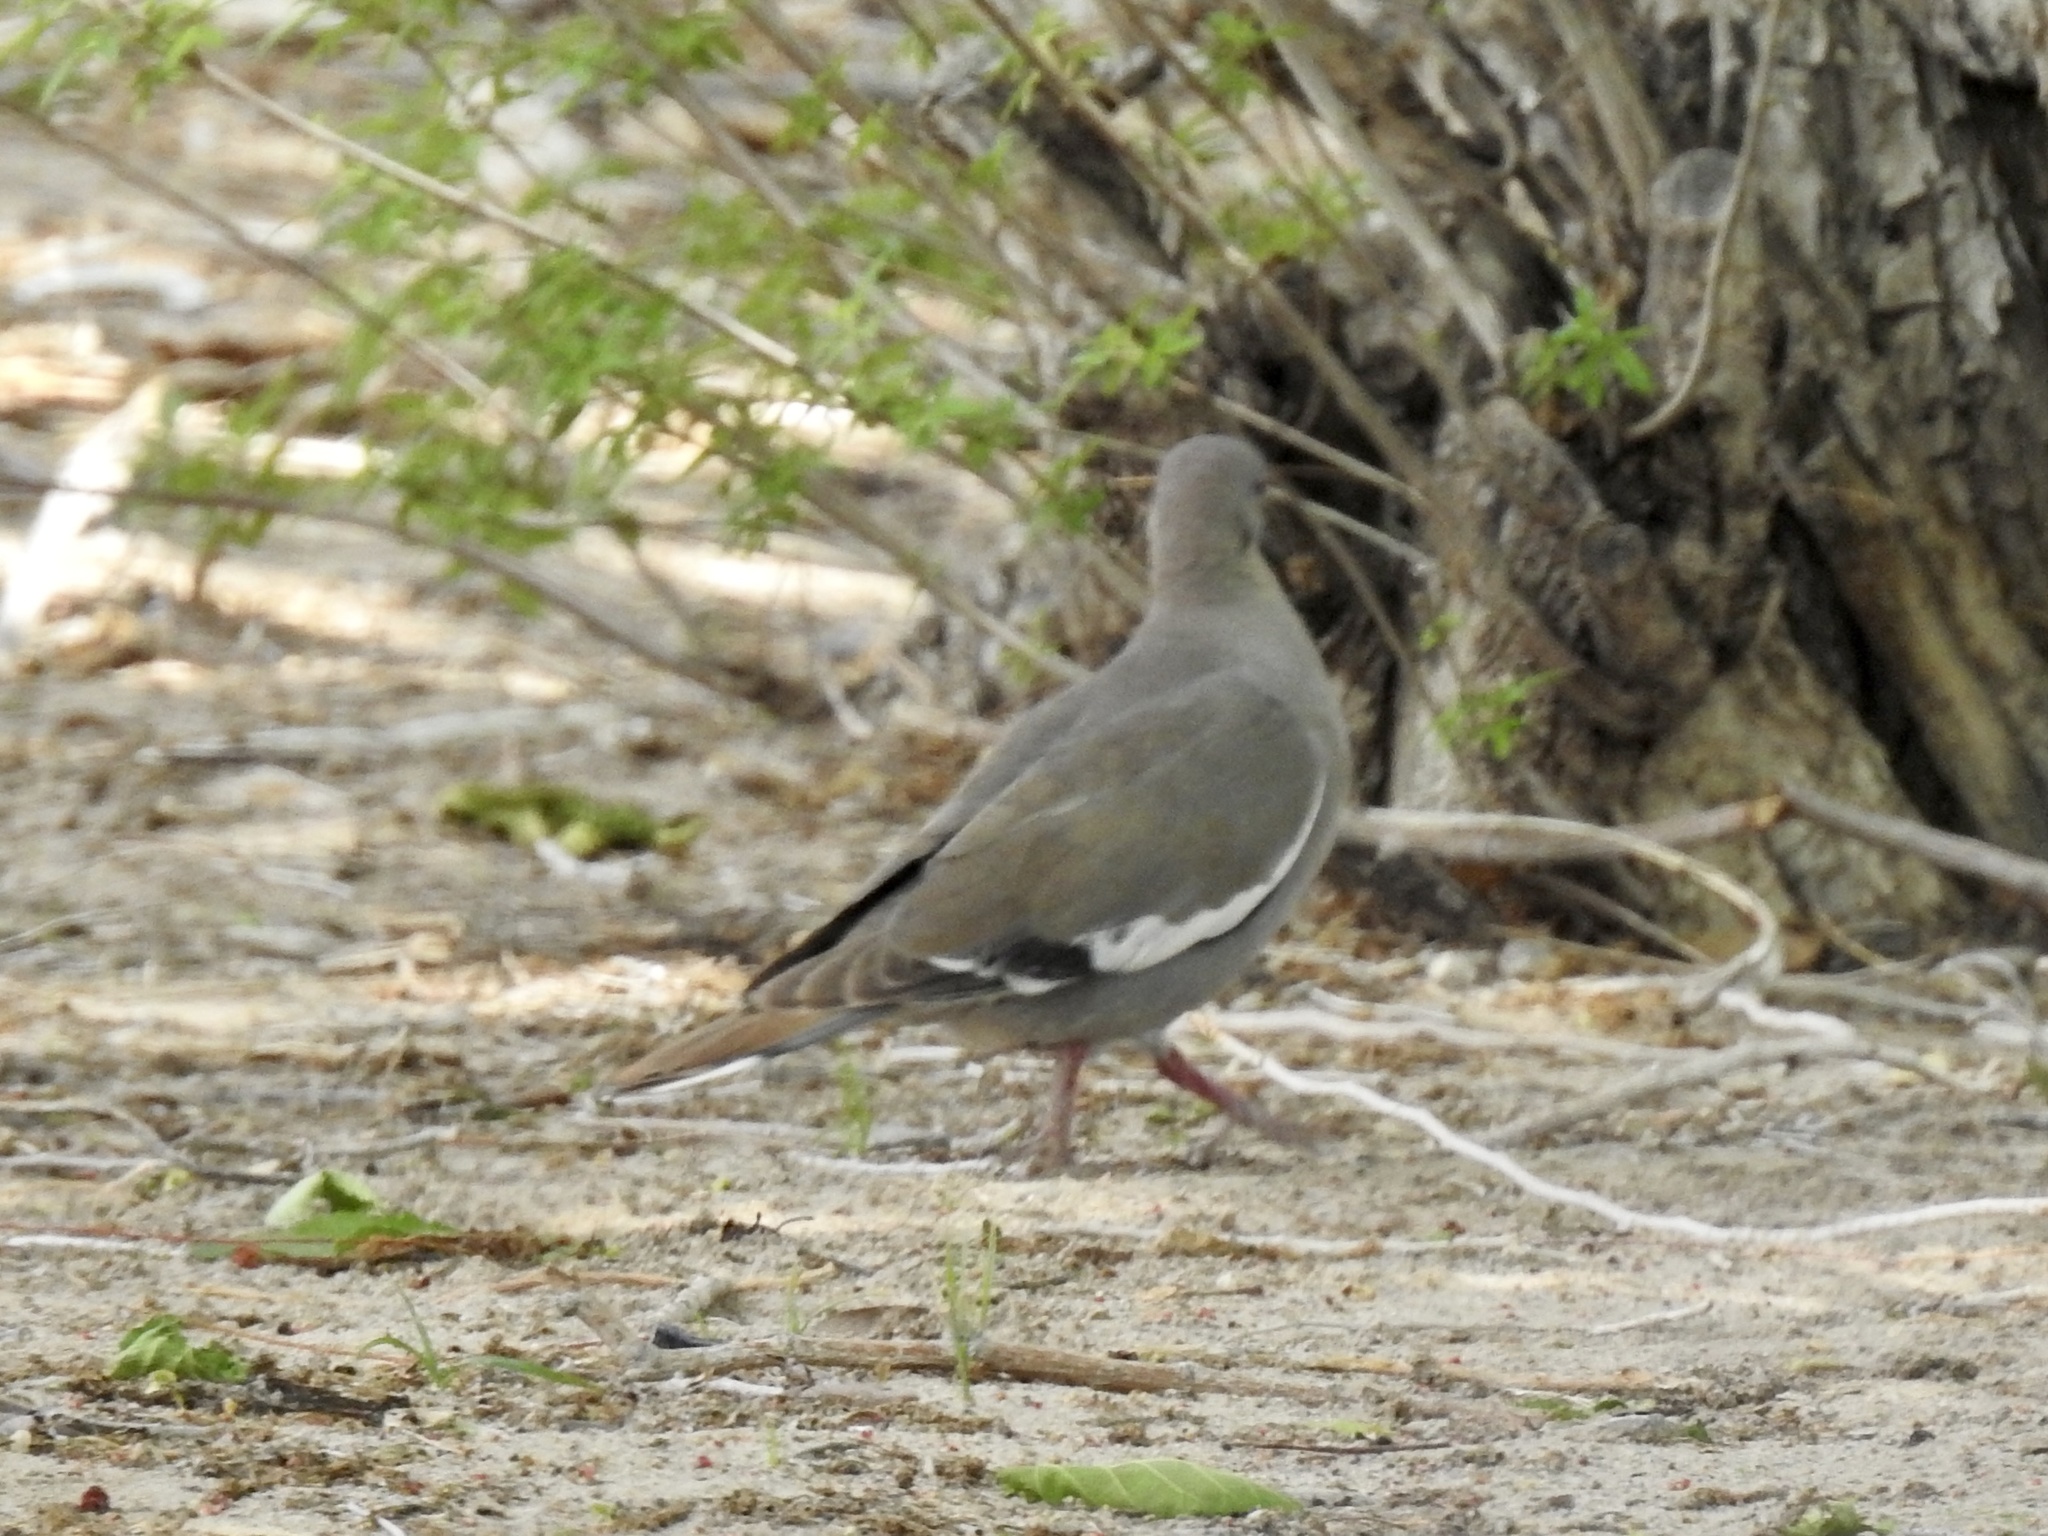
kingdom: Animalia
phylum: Chordata
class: Aves
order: Columbiformes
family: Columbidae
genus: Zenaida
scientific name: Zenaida asiatica
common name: White-winged dove
